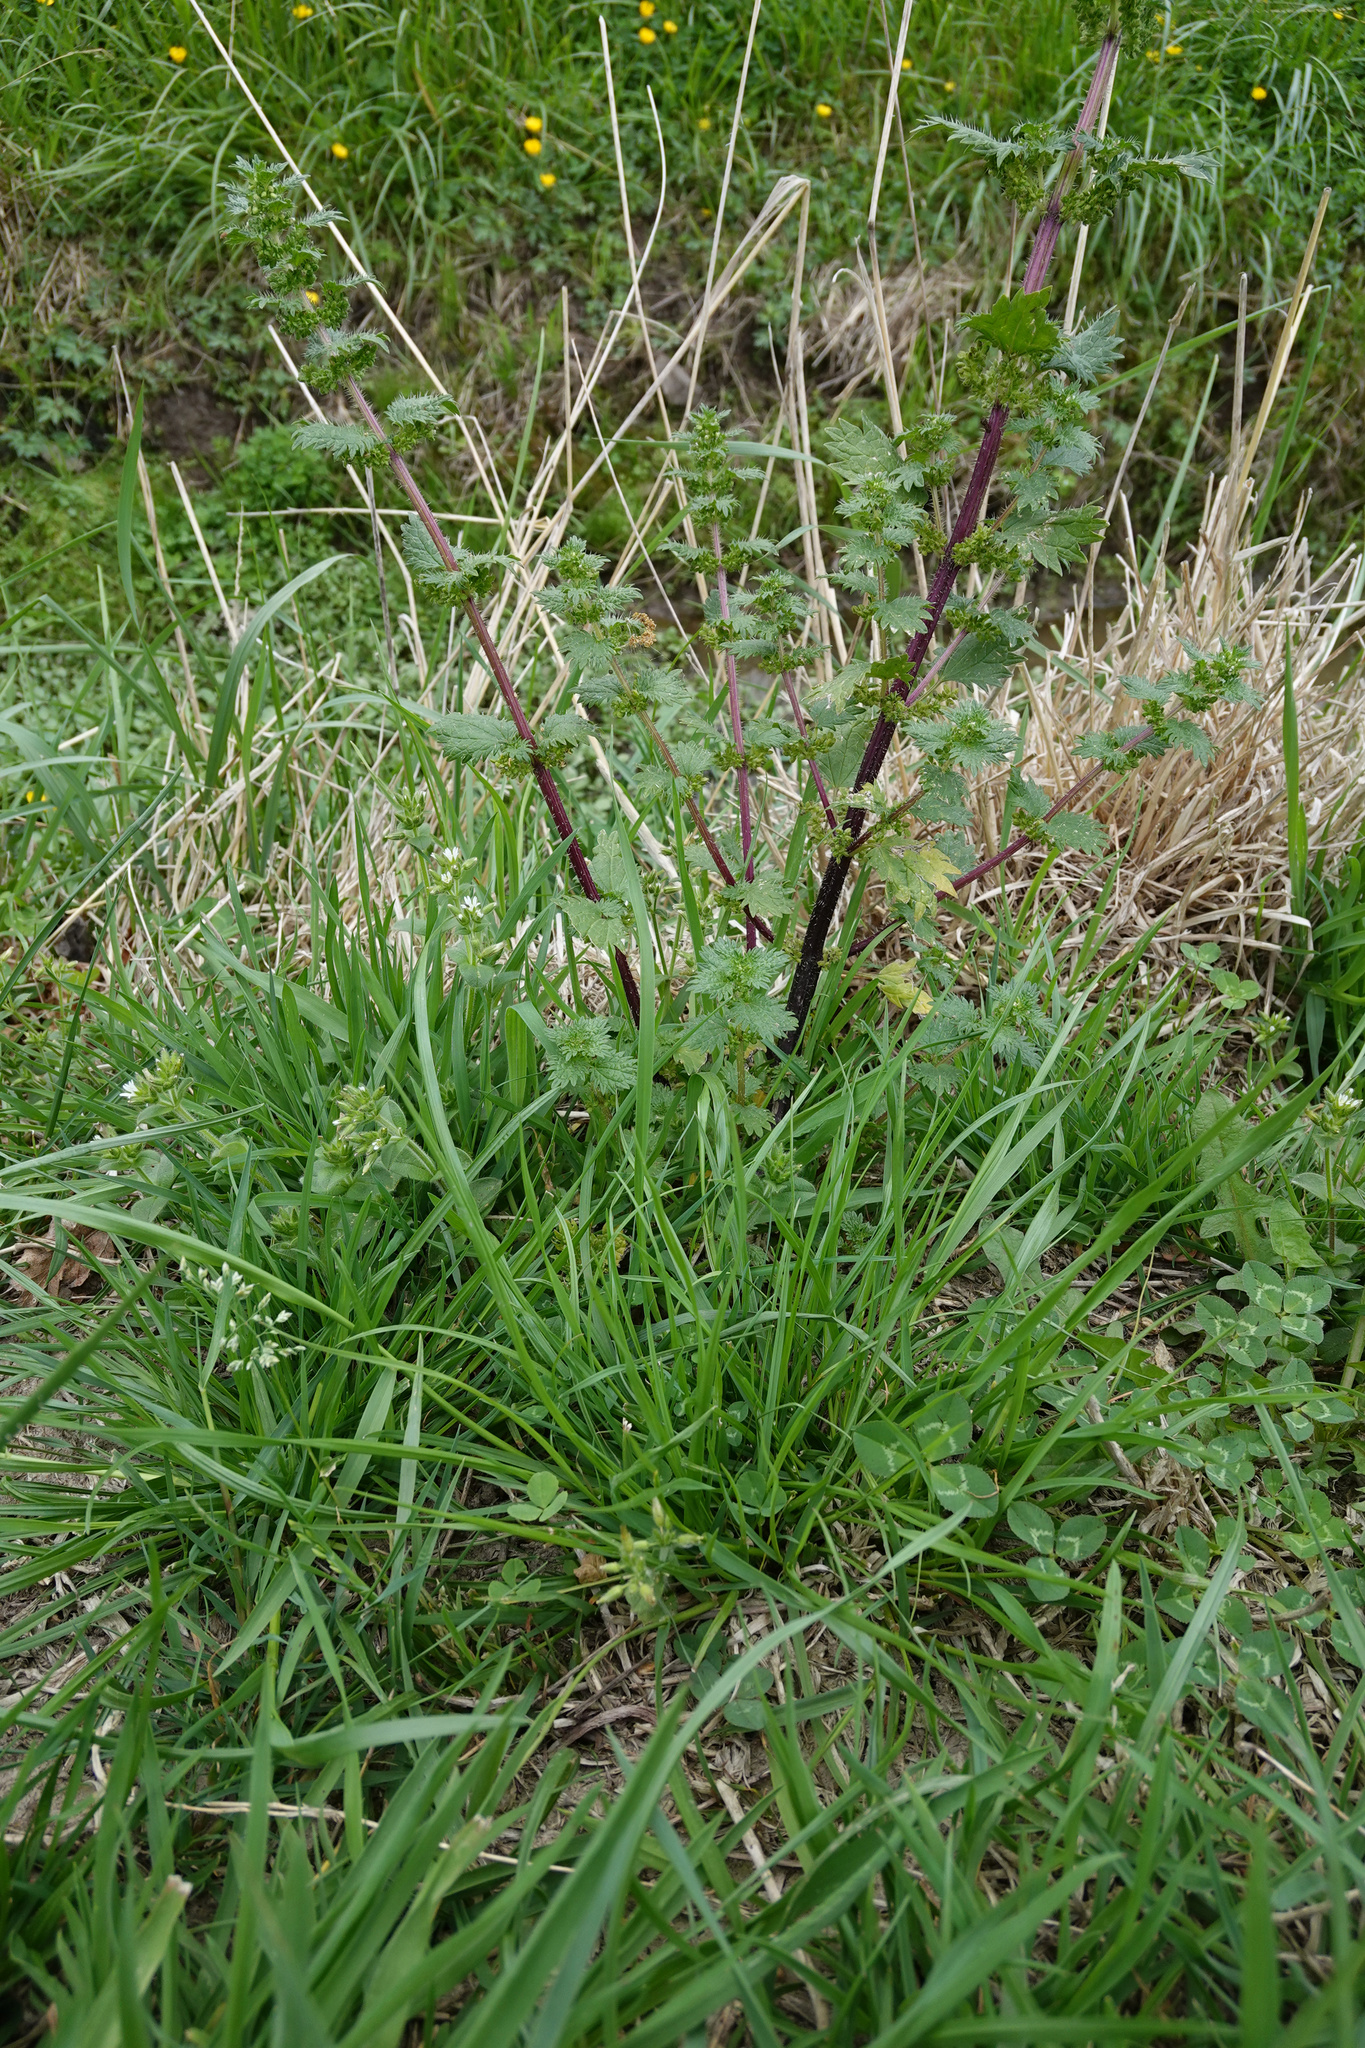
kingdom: Plantae
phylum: Tracheophyta
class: Magnoliopsida
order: Rosales
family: Urticaceae
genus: Urtica
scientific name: Urtica urens
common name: Dwarf nettle
